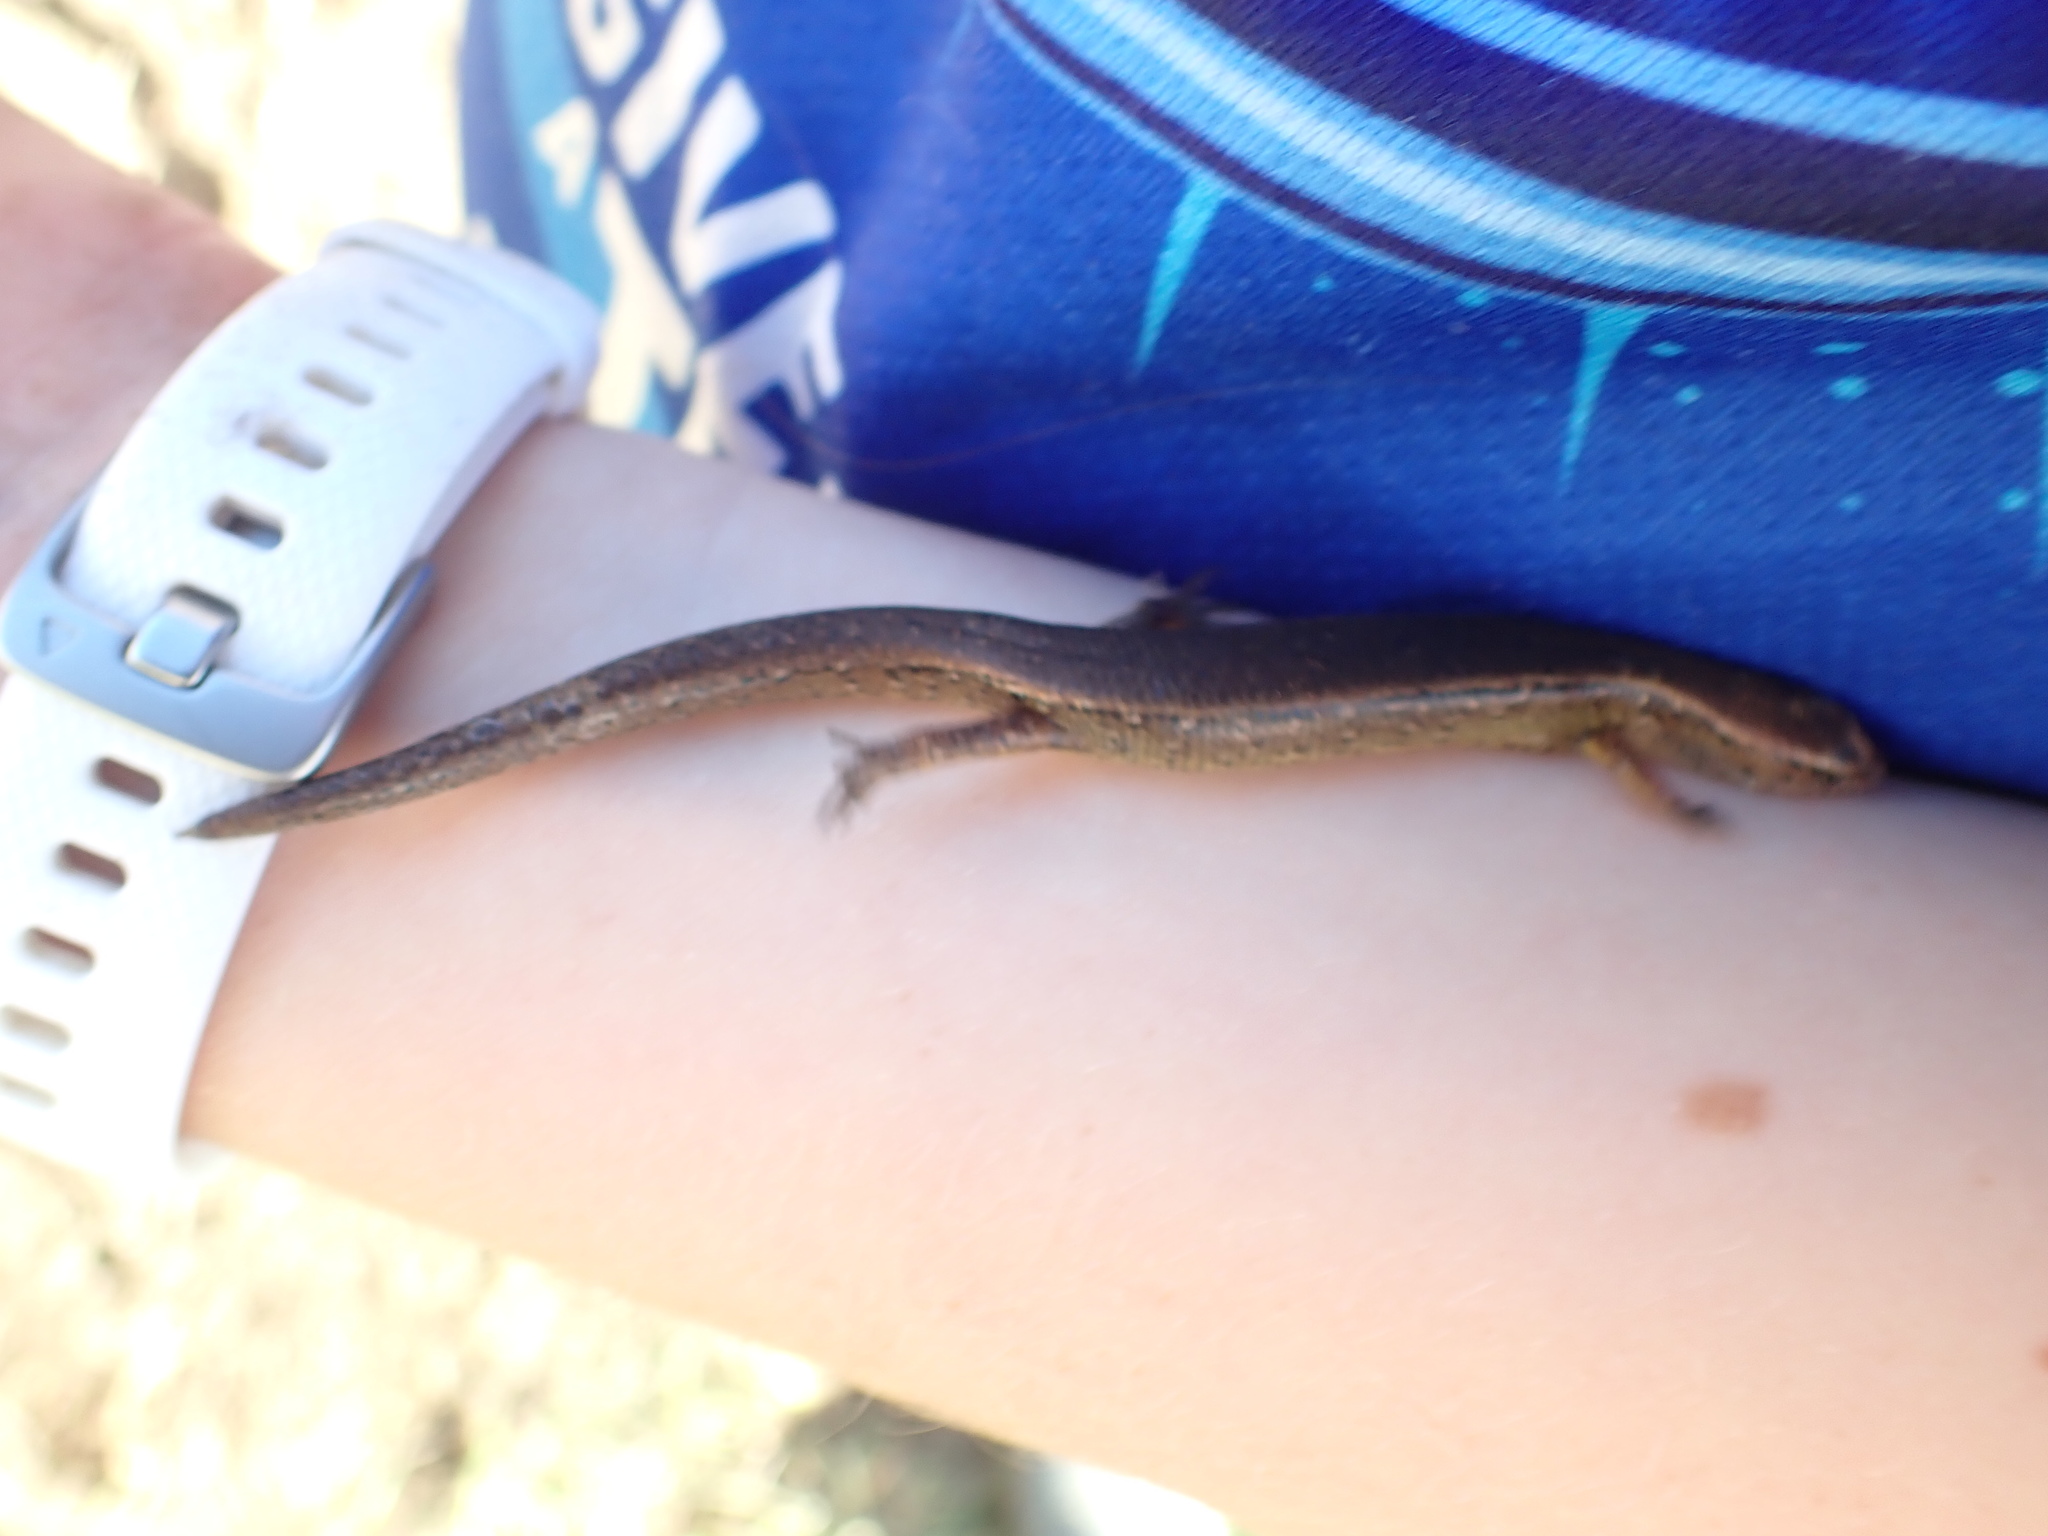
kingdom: Animalia
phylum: Chordata
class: Squamata
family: Scincidae
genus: Oligosoma
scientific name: Oligosoma aeneum
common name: Copper skink
